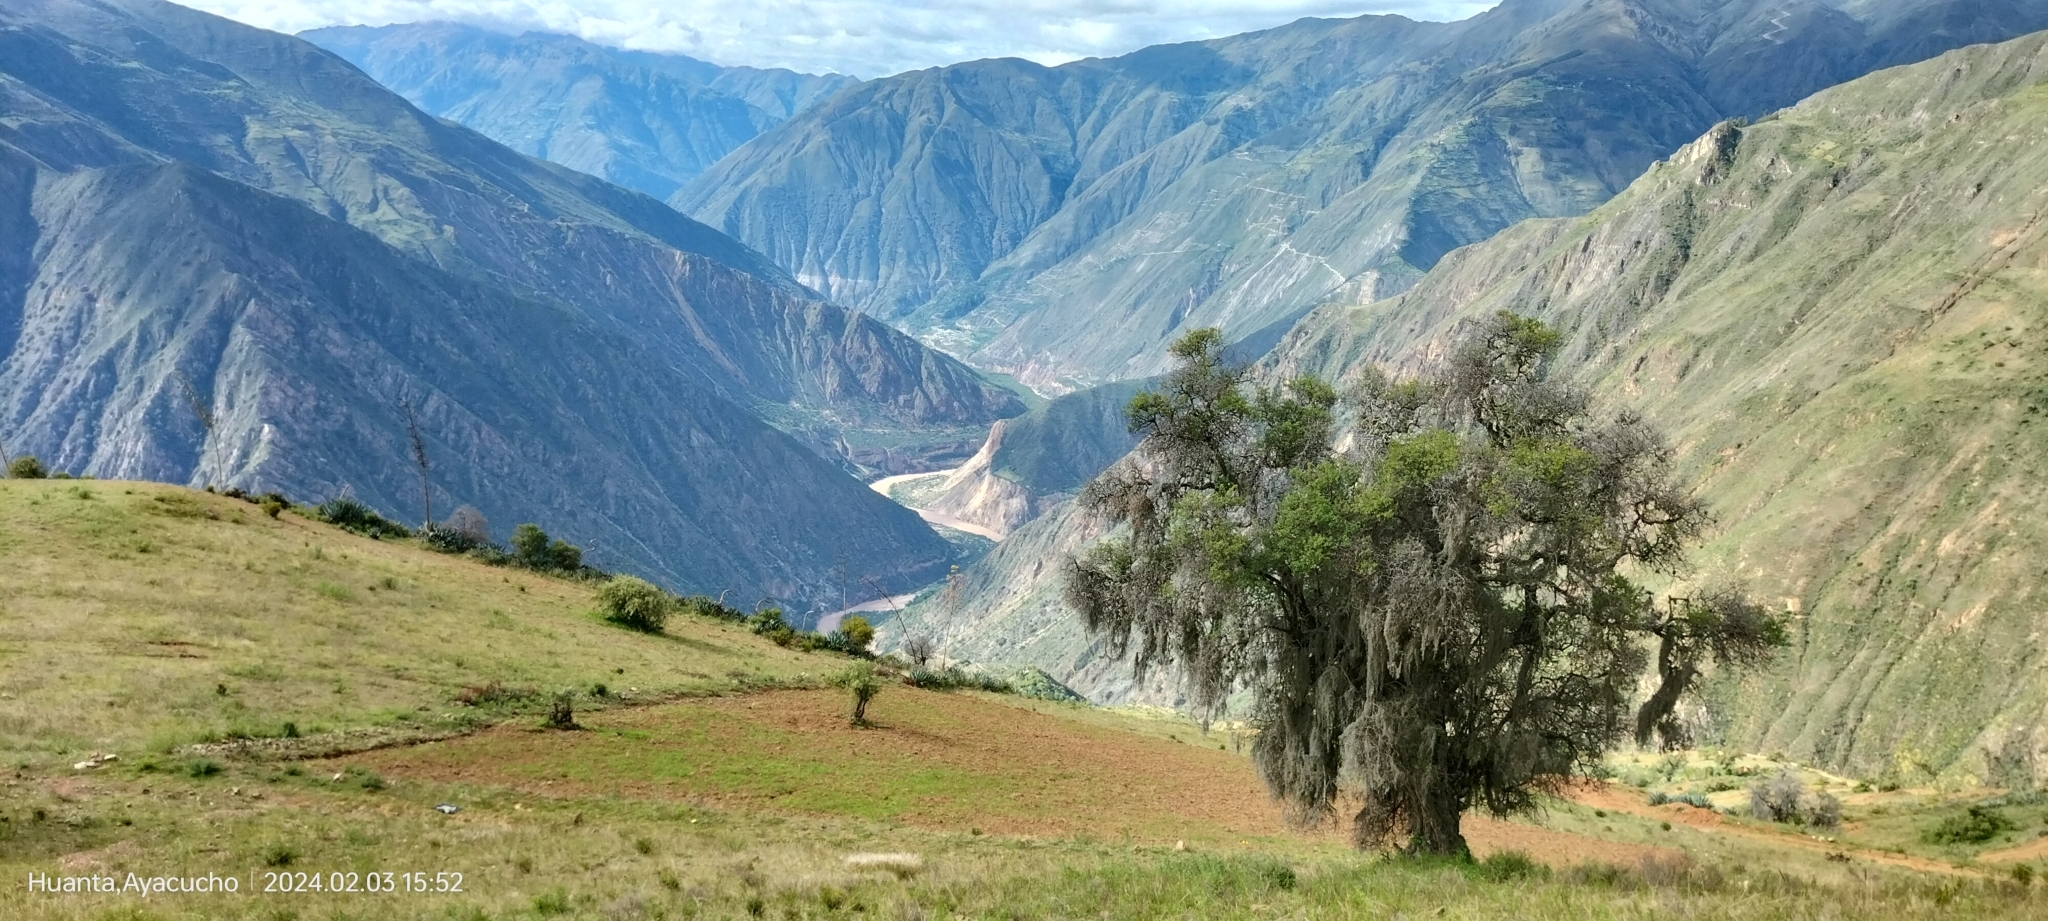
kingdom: Plantae
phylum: Tracheophyta
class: Magnoliopsida
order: Escalloniales
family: Escalloniaceae
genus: Escallonia
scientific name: Escallonia resinosa
